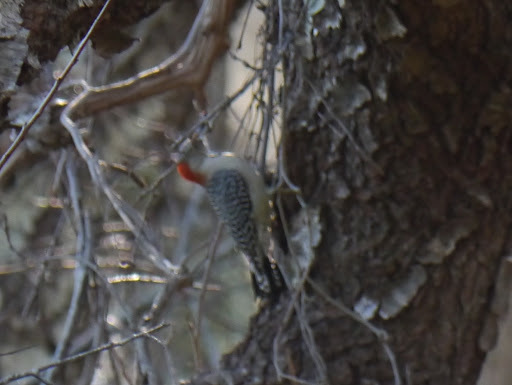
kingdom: Animalia
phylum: Chordata
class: Aves
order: Piciformes
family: Picidae
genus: Melanerpes
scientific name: Melanerpes carolinus
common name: Red-bellied woodpecker
